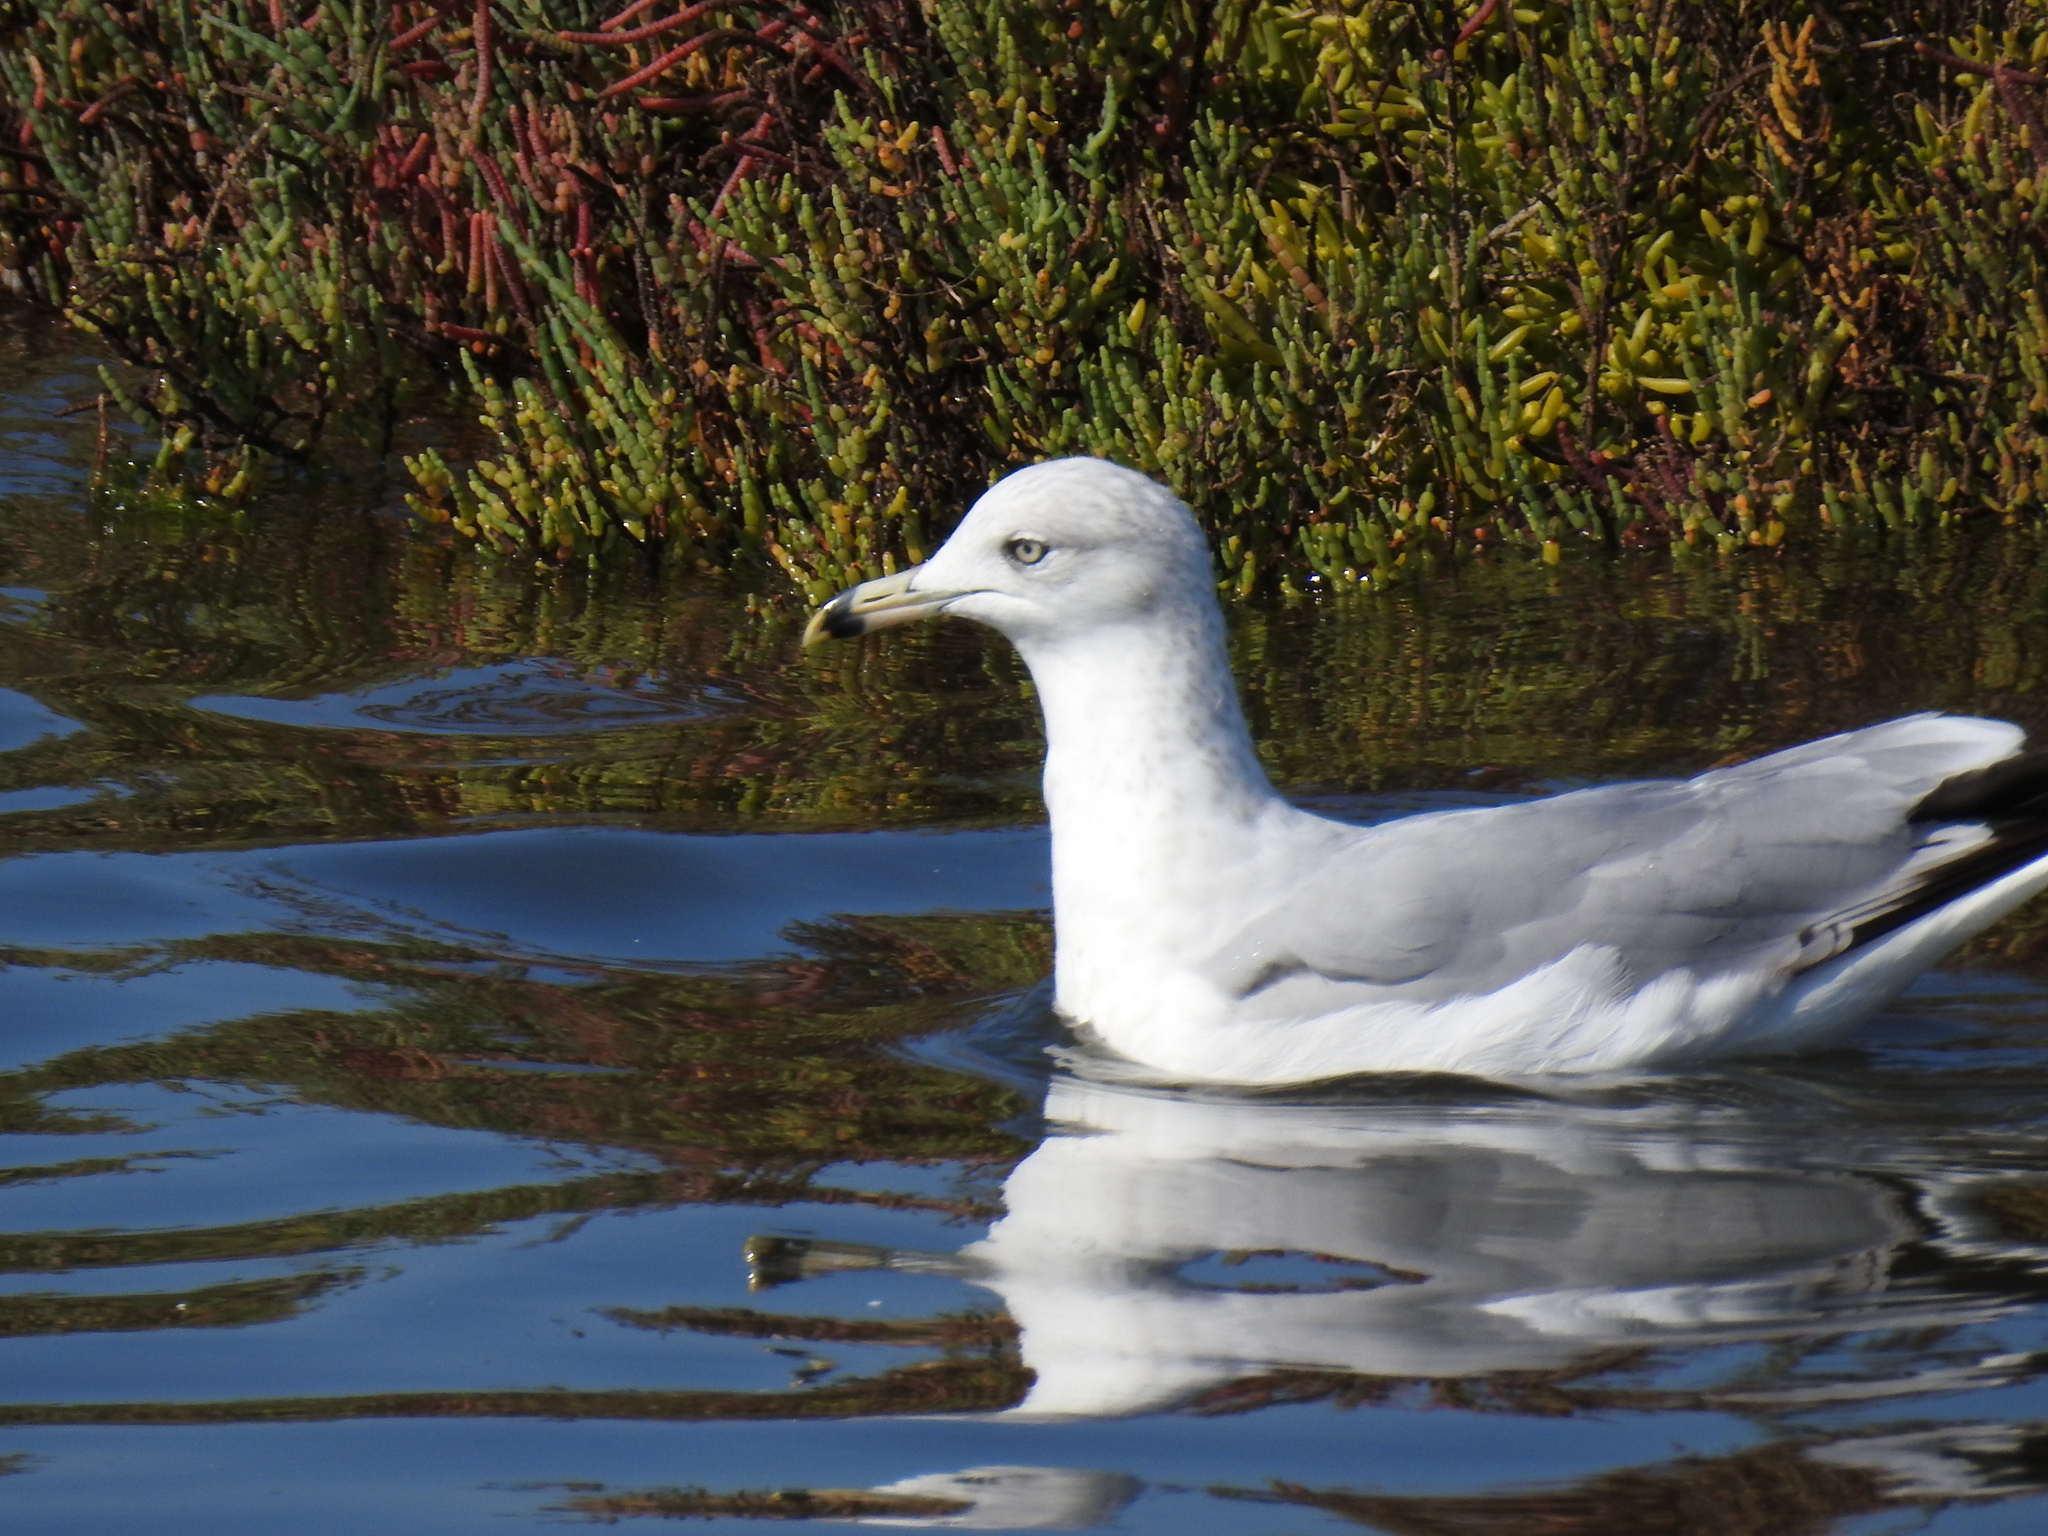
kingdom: Animalia
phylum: Chordata
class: Aves
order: Charadriiformes
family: Laridae
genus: Larus
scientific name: Larus delawarensis
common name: Ring-billed gull
